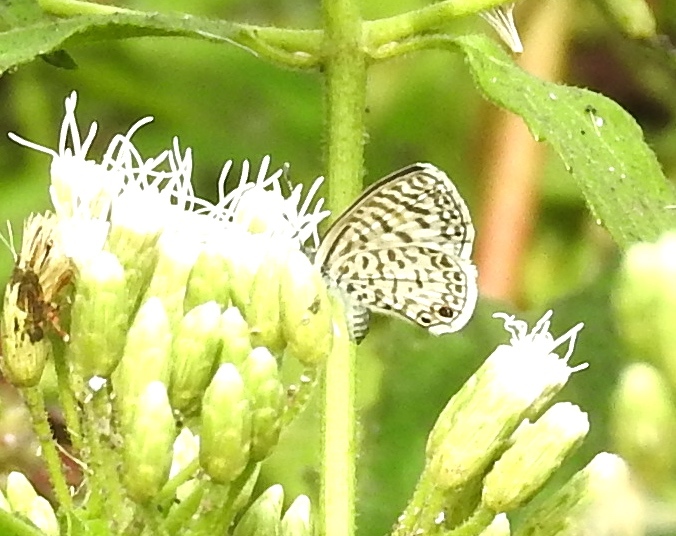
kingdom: Animalia
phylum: Arthropoda
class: Insecta
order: Lepidoptera
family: Lycaenidae
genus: Leptotes
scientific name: Leptotes theonus
